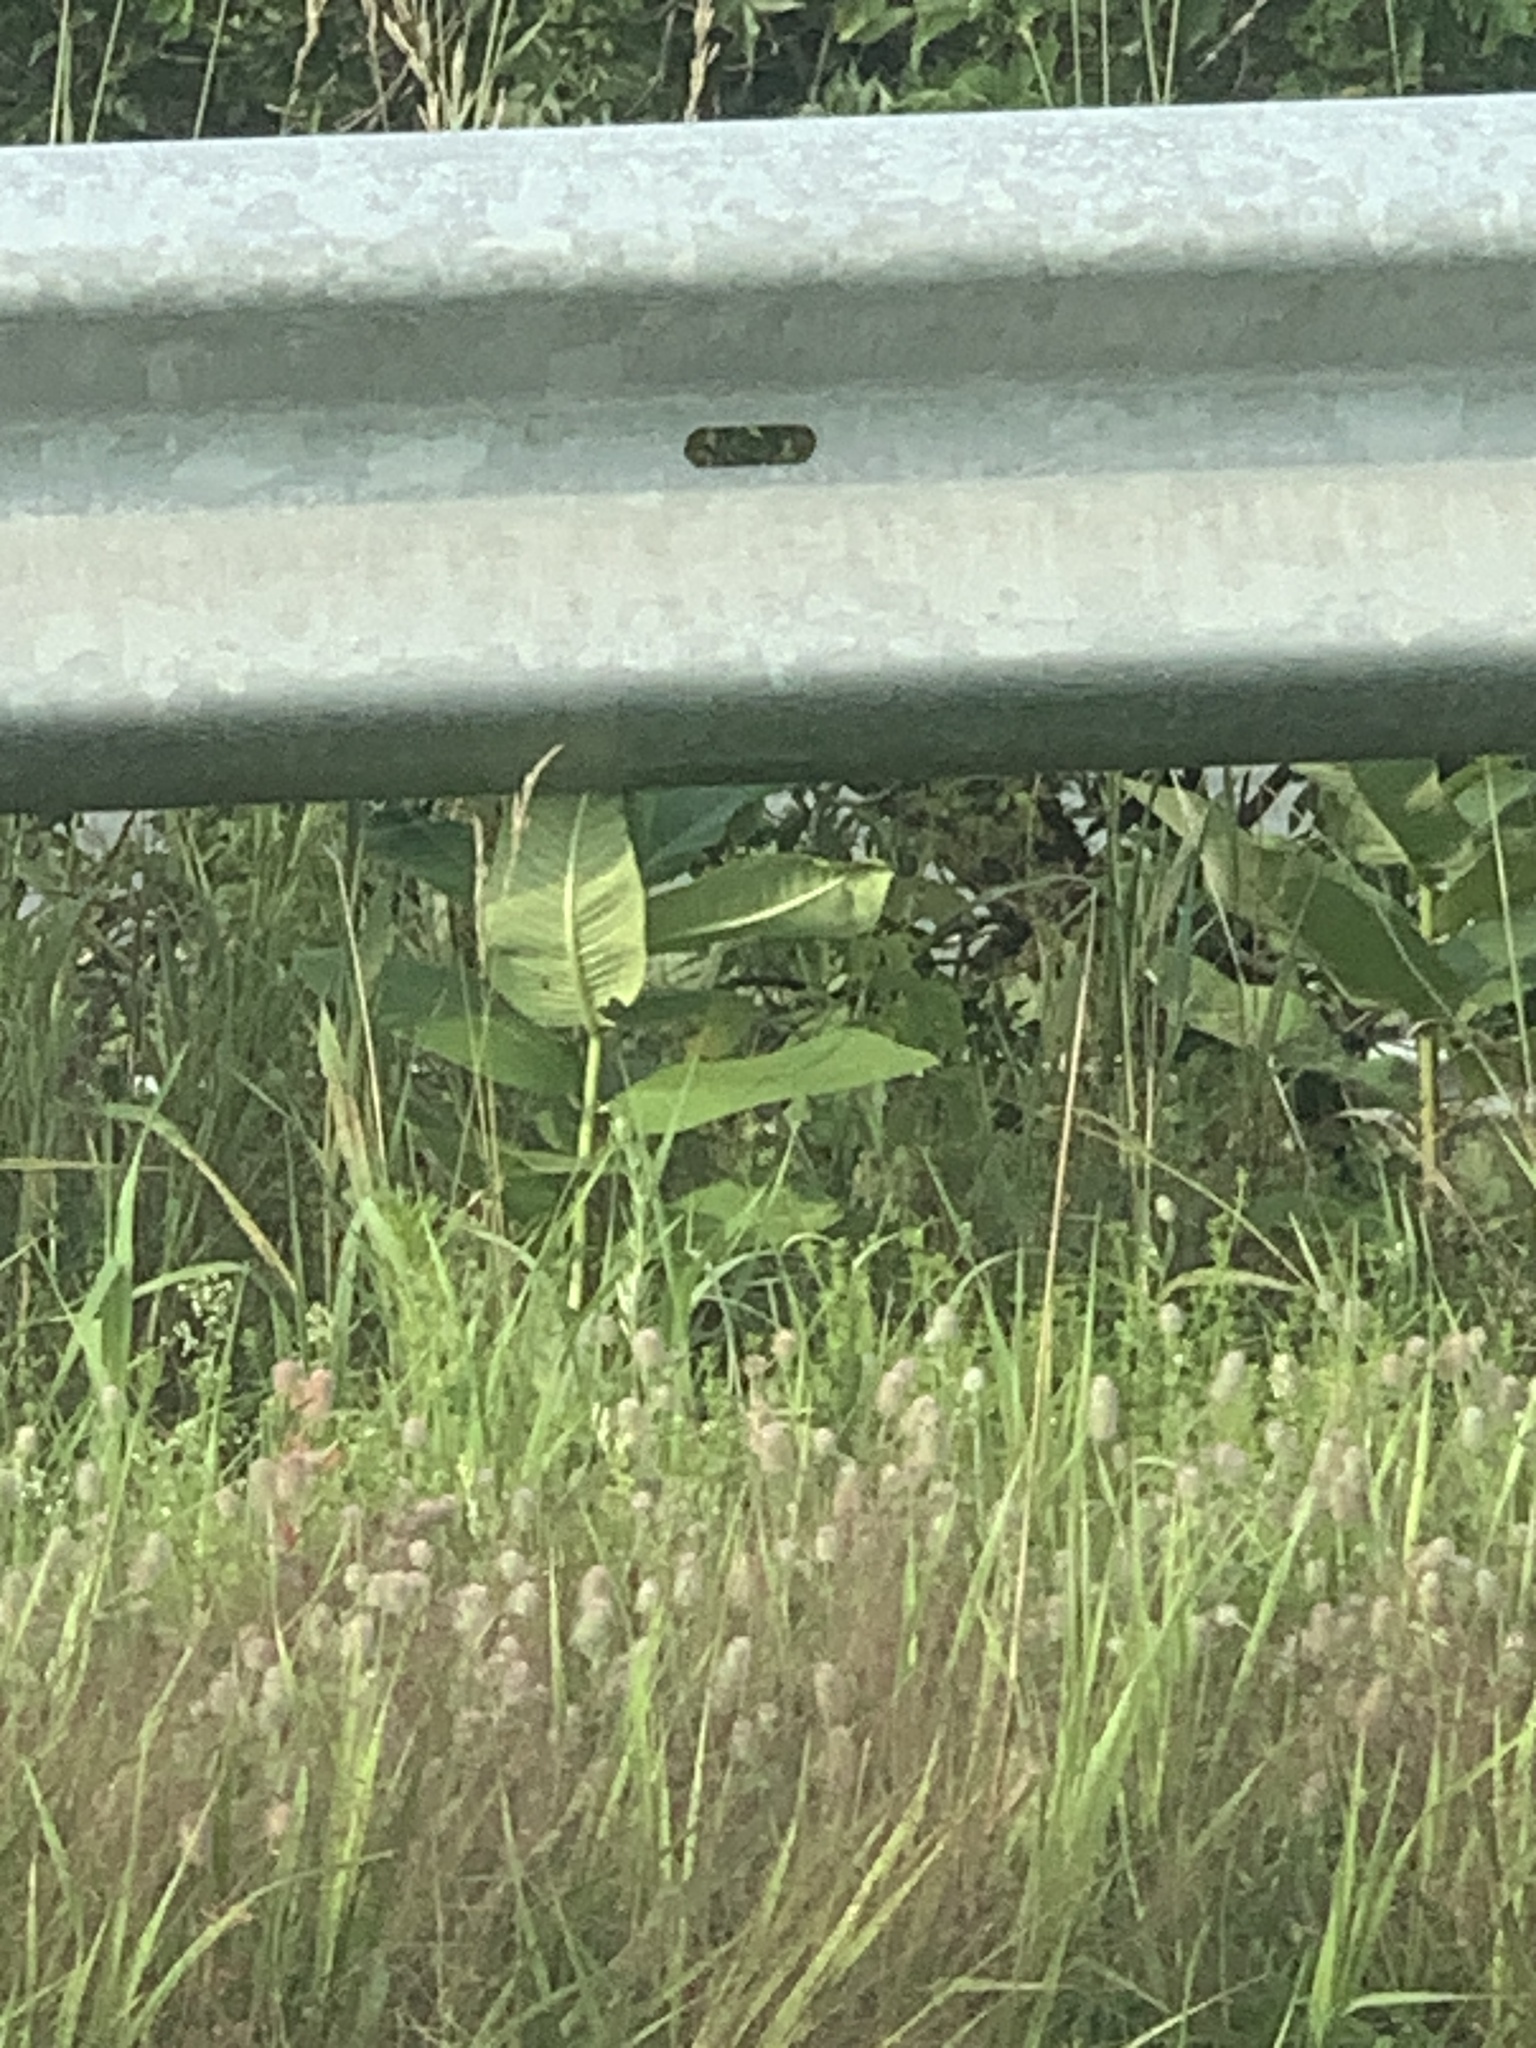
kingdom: Plantae
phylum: Tracheophyta
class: Magnoliopsida
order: Gentianales
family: Apocynaceae
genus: Asclepias
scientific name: Asclepias syriaca
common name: Common milkweed
